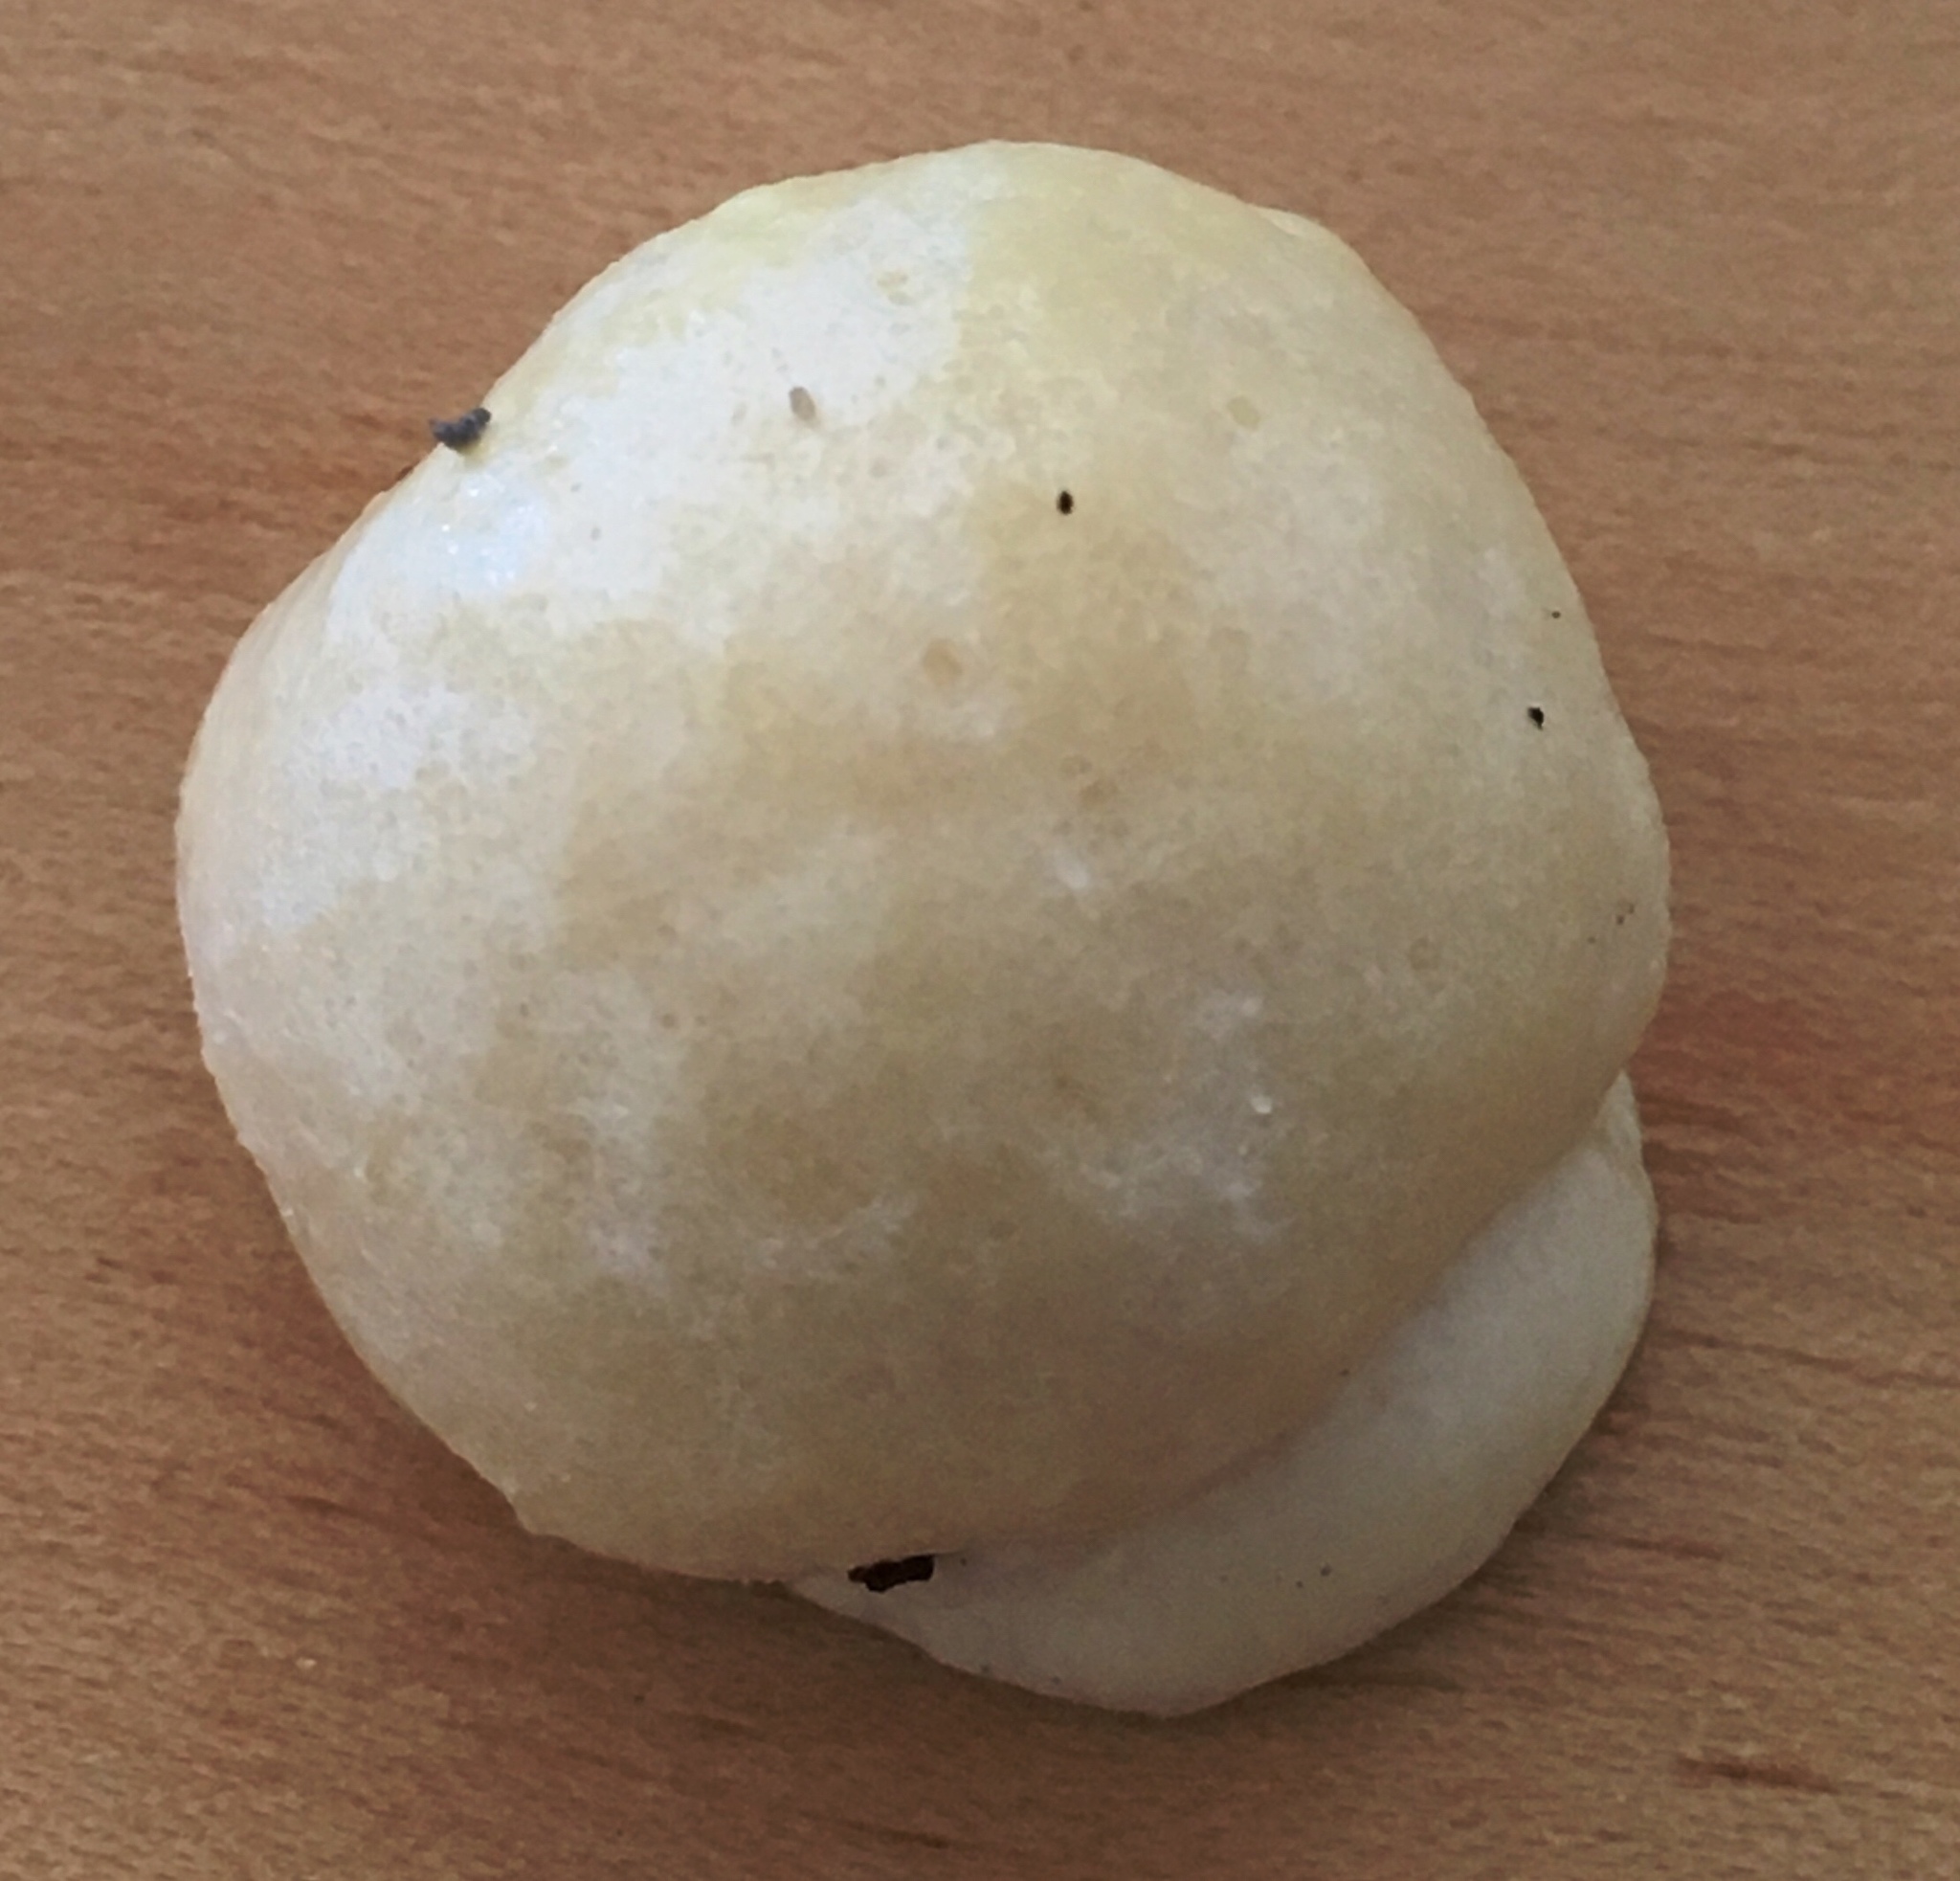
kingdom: Protozoa
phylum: Mycetozoa
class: Myxomycetes
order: Cribrariales
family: Tubiferaceae
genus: Reticularia
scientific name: Reticularia lycoperdon
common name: False puffball
